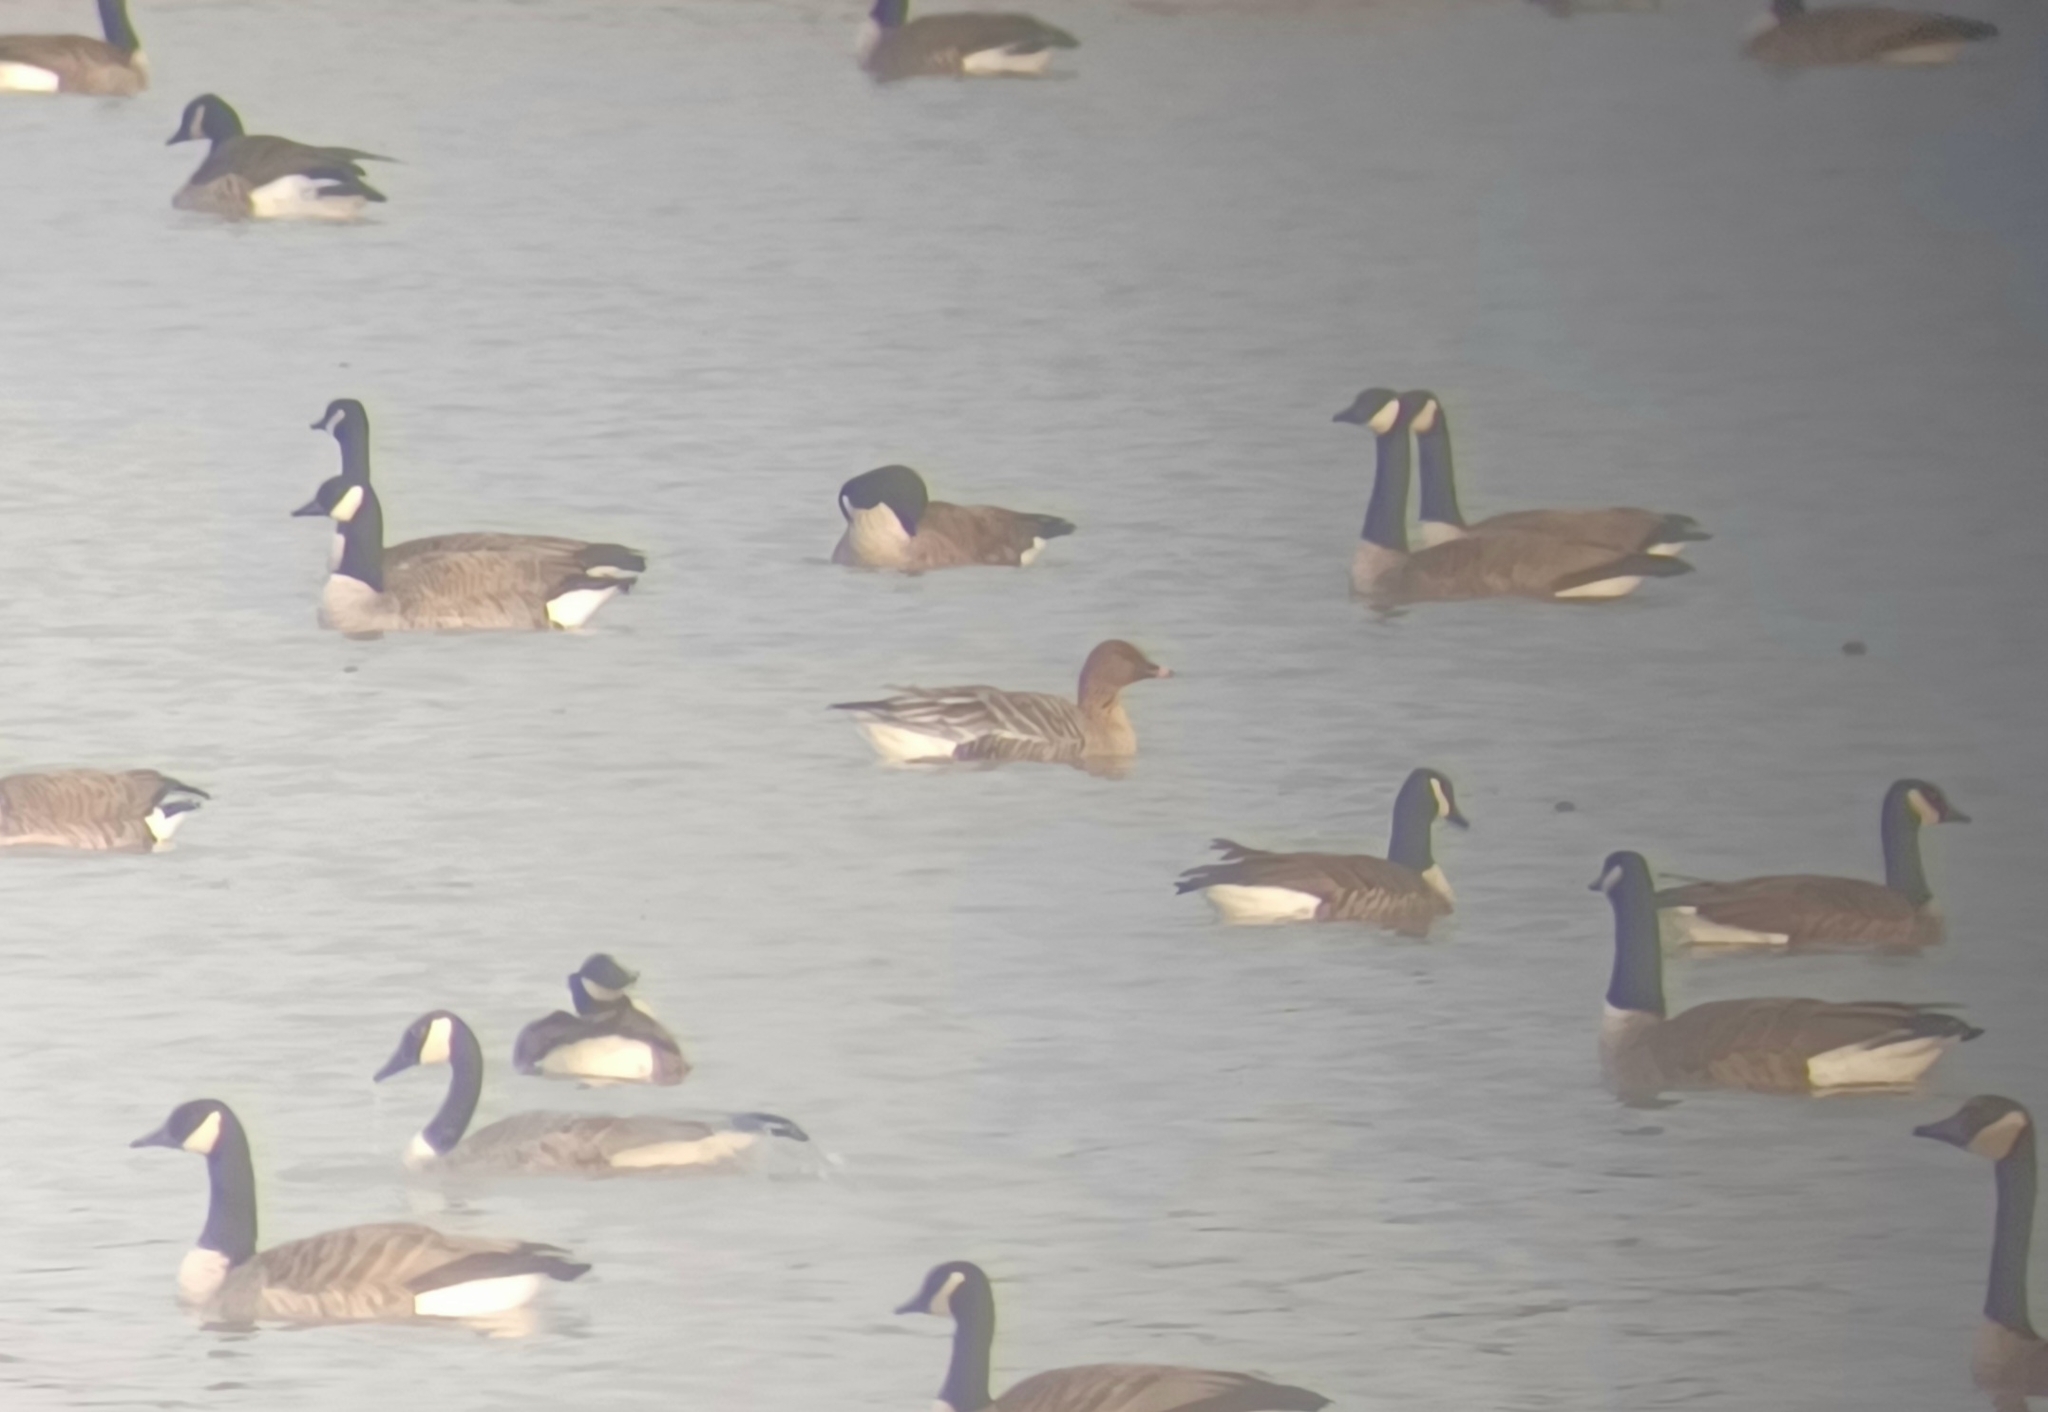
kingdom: Animalia
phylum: Chordata
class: Aves
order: Anseriformes
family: Anatidae
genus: Anser
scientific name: Anser brachyrhynchus
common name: Pink-footed goose
